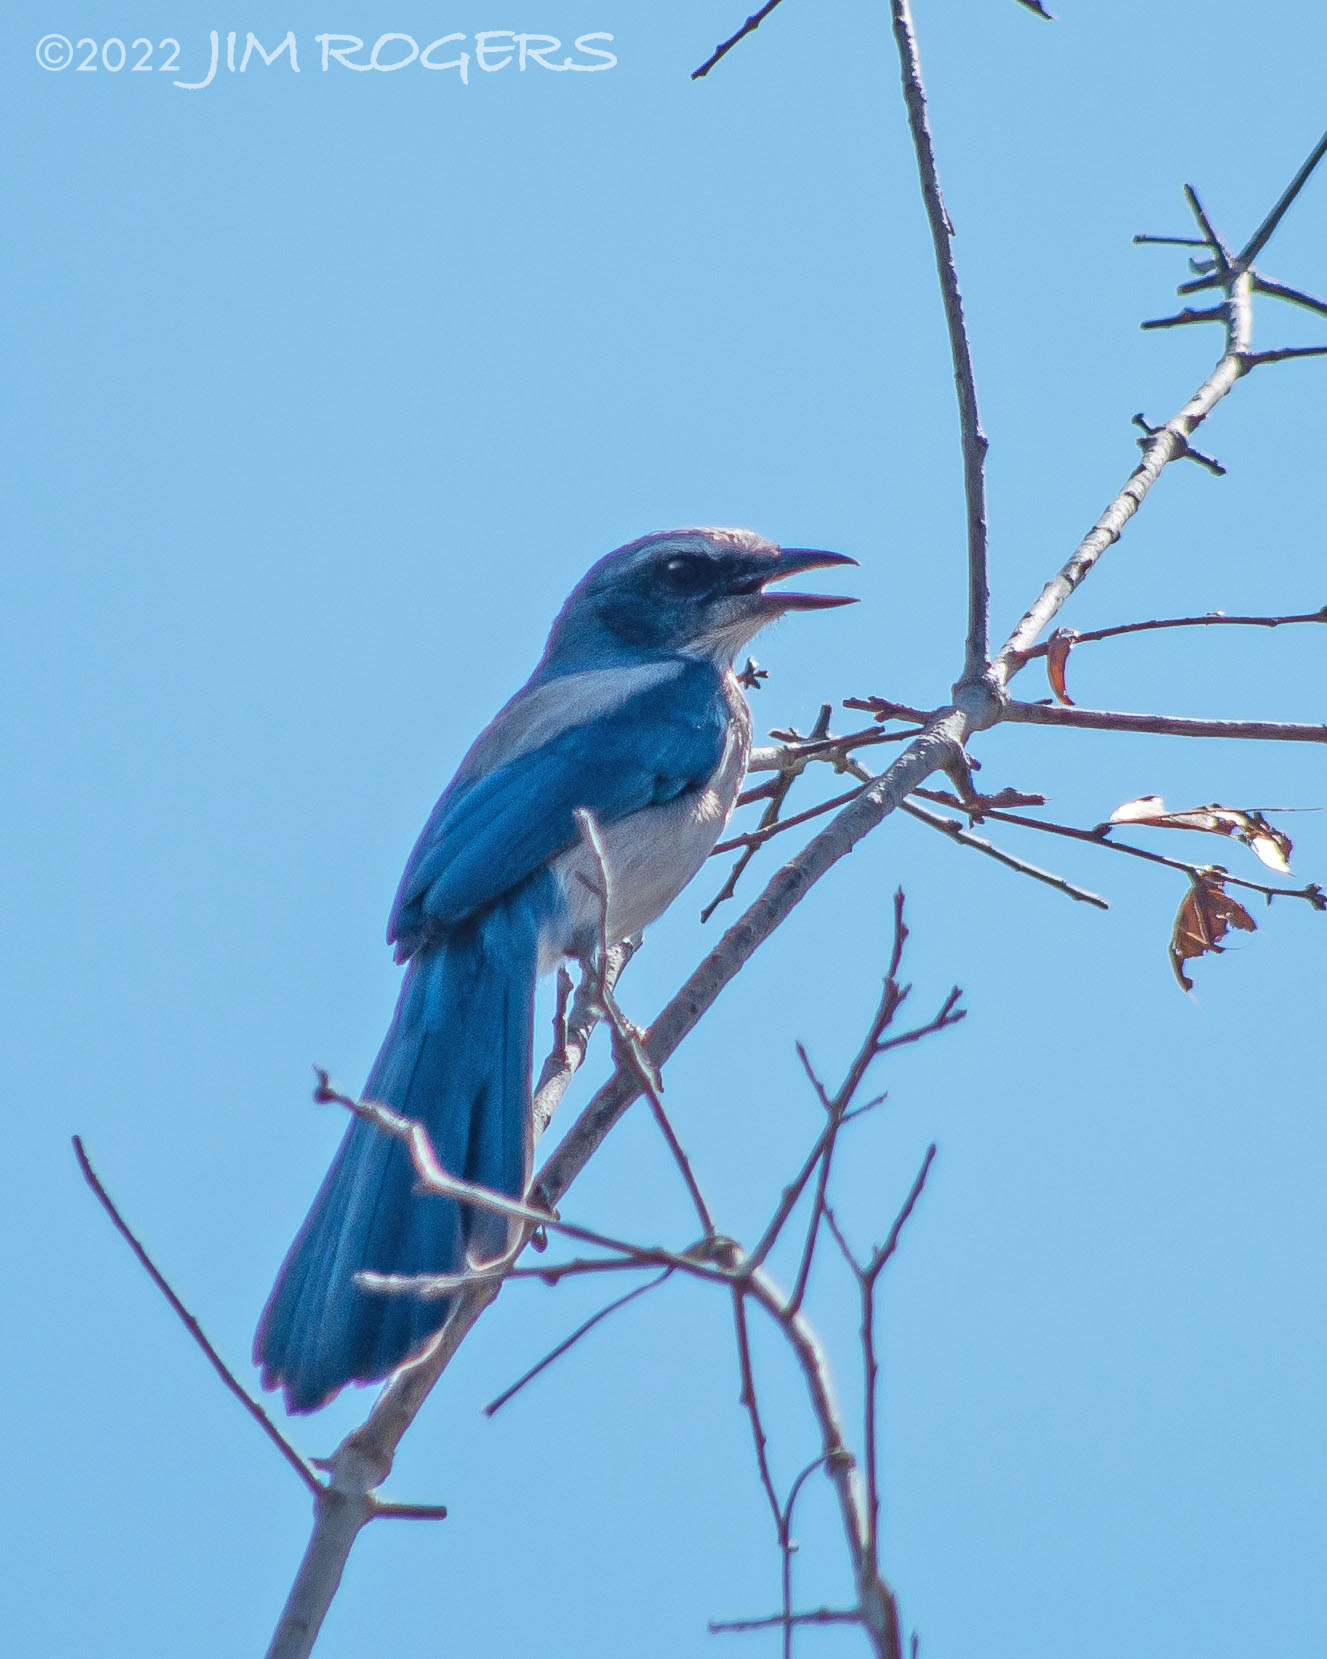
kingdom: Animalia
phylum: Chordata
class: Aves
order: Passeriformes
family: Corvidae
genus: Aphelocoma
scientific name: Aphelocoma coerulescens
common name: Florida scrub jay
